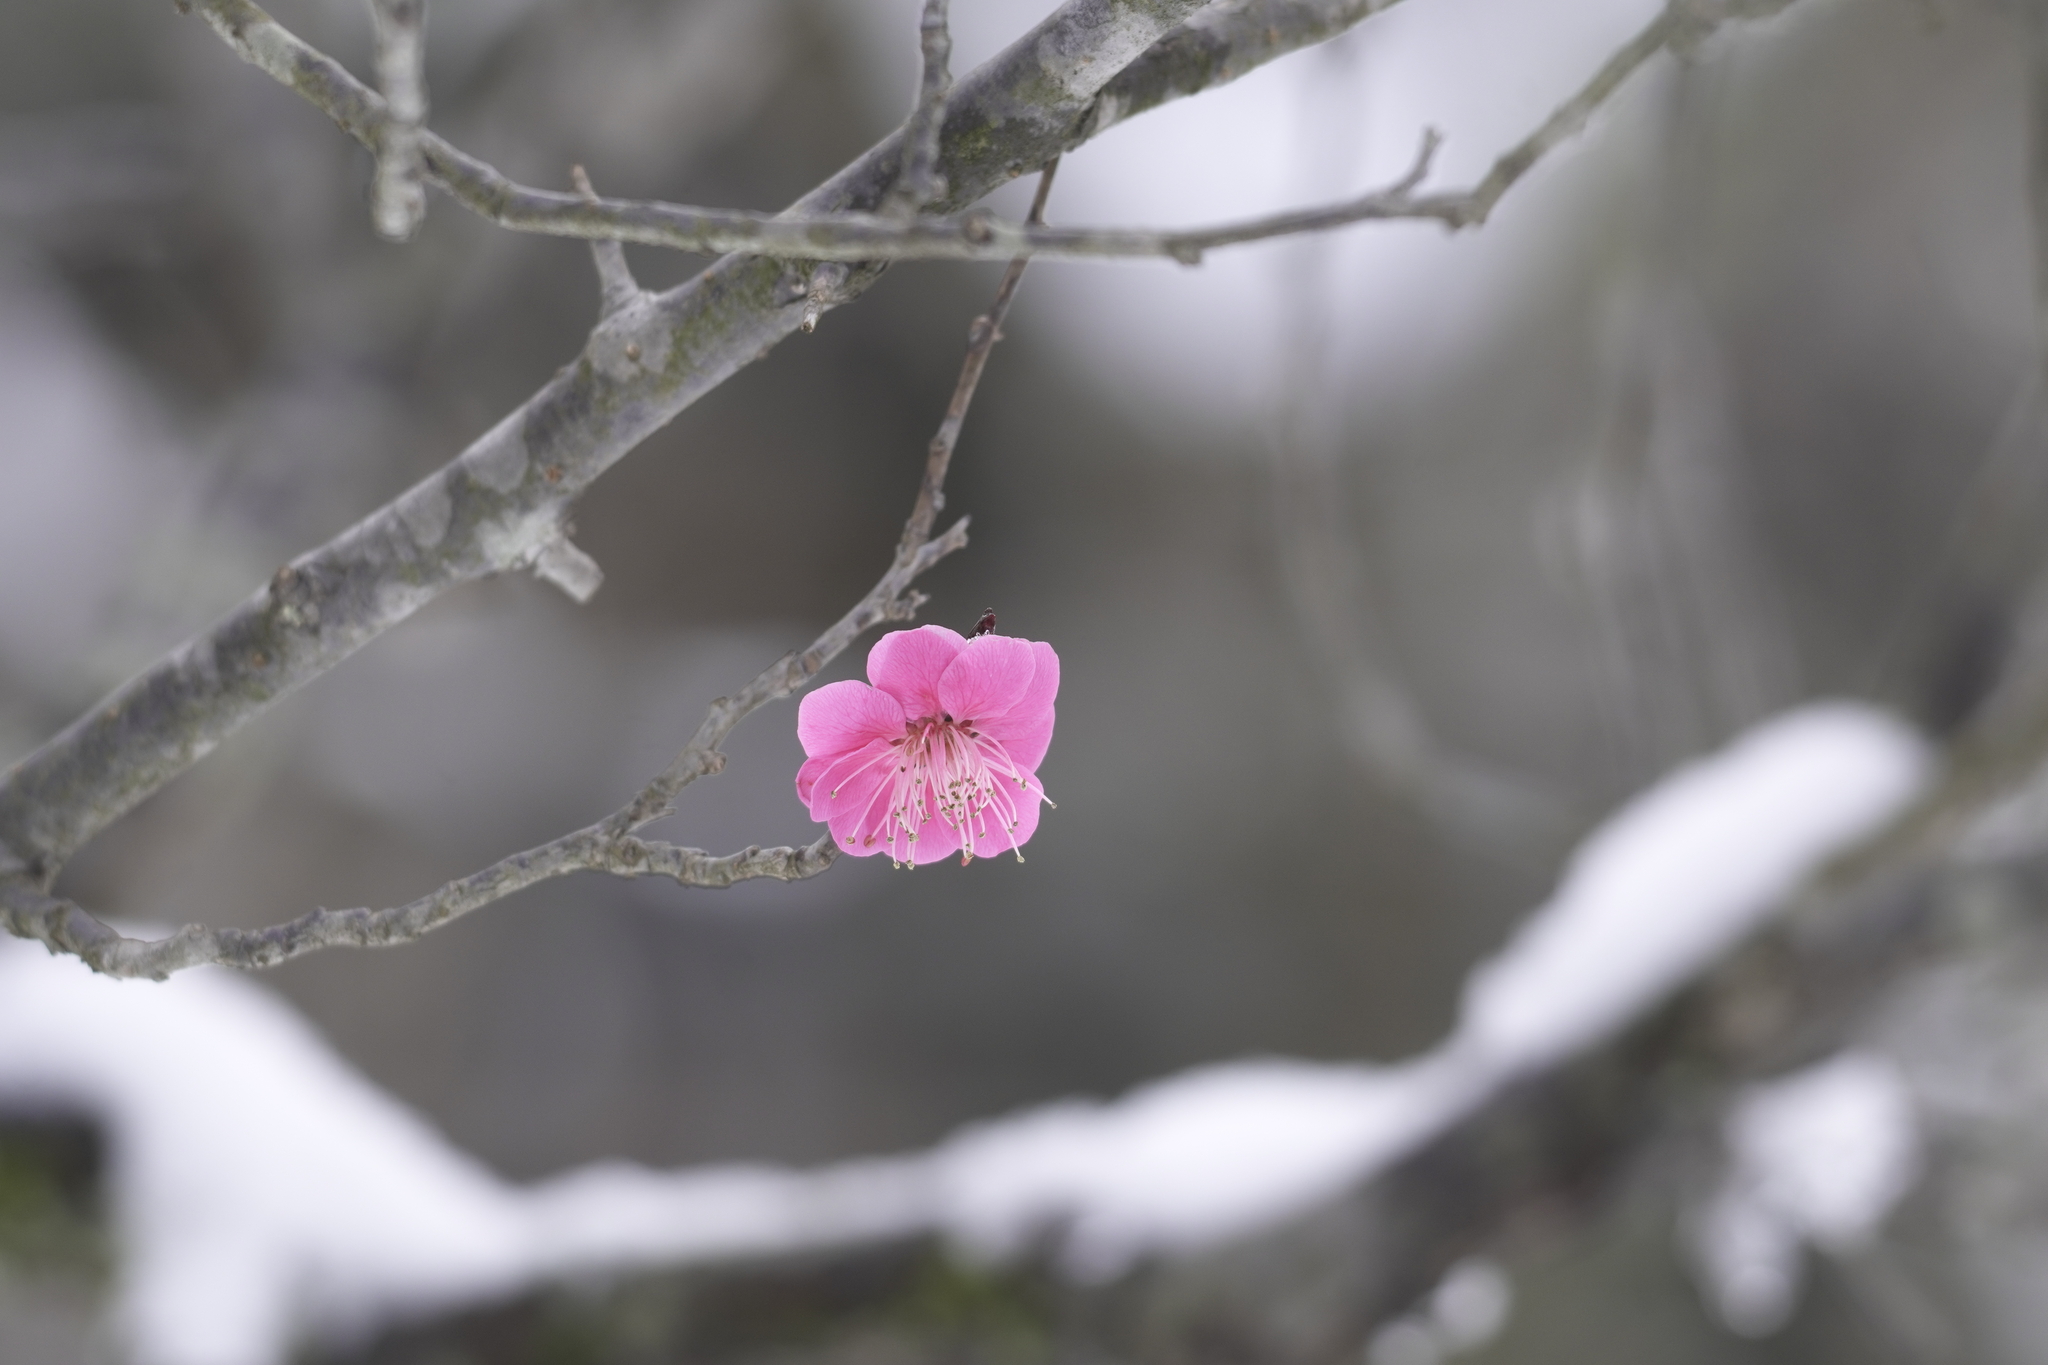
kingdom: Plantae
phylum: Tracheophyta
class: Magnoliopsida
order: Rosales
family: Rosaceae
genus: Prunus
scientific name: Prunus mume
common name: Japanese apricot
